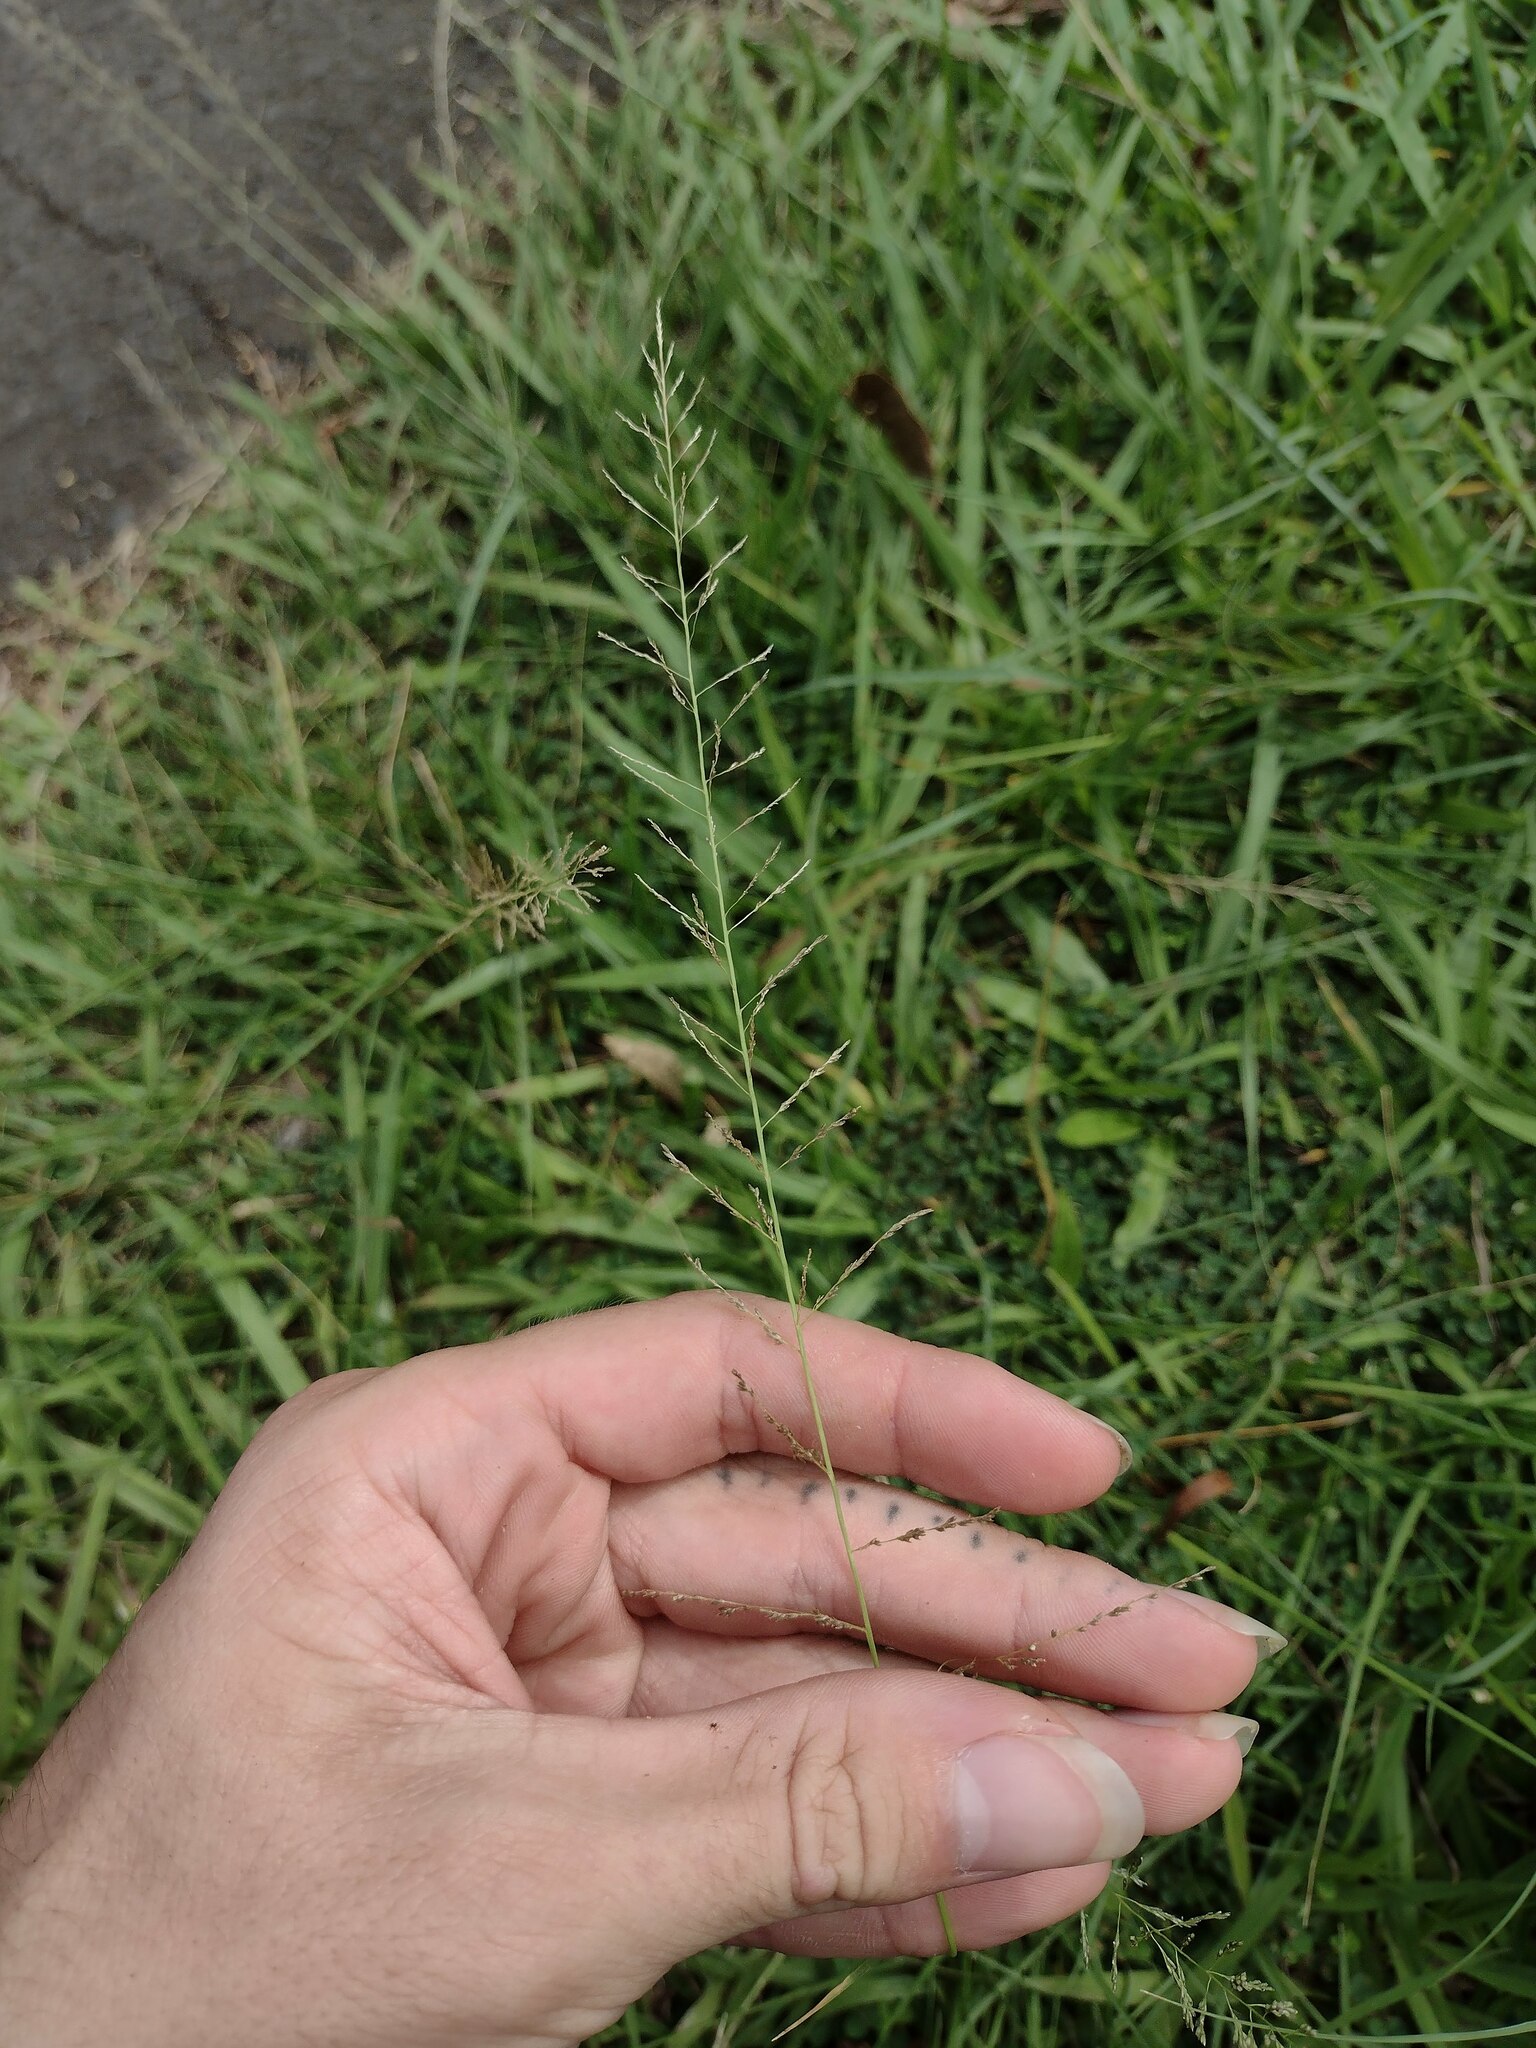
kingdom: Plantae
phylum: Tracheophyta
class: Liliopsida
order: Poales
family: Poaceae
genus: Sporobolus
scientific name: Sporobolus diandrus
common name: Tussock dropseed
